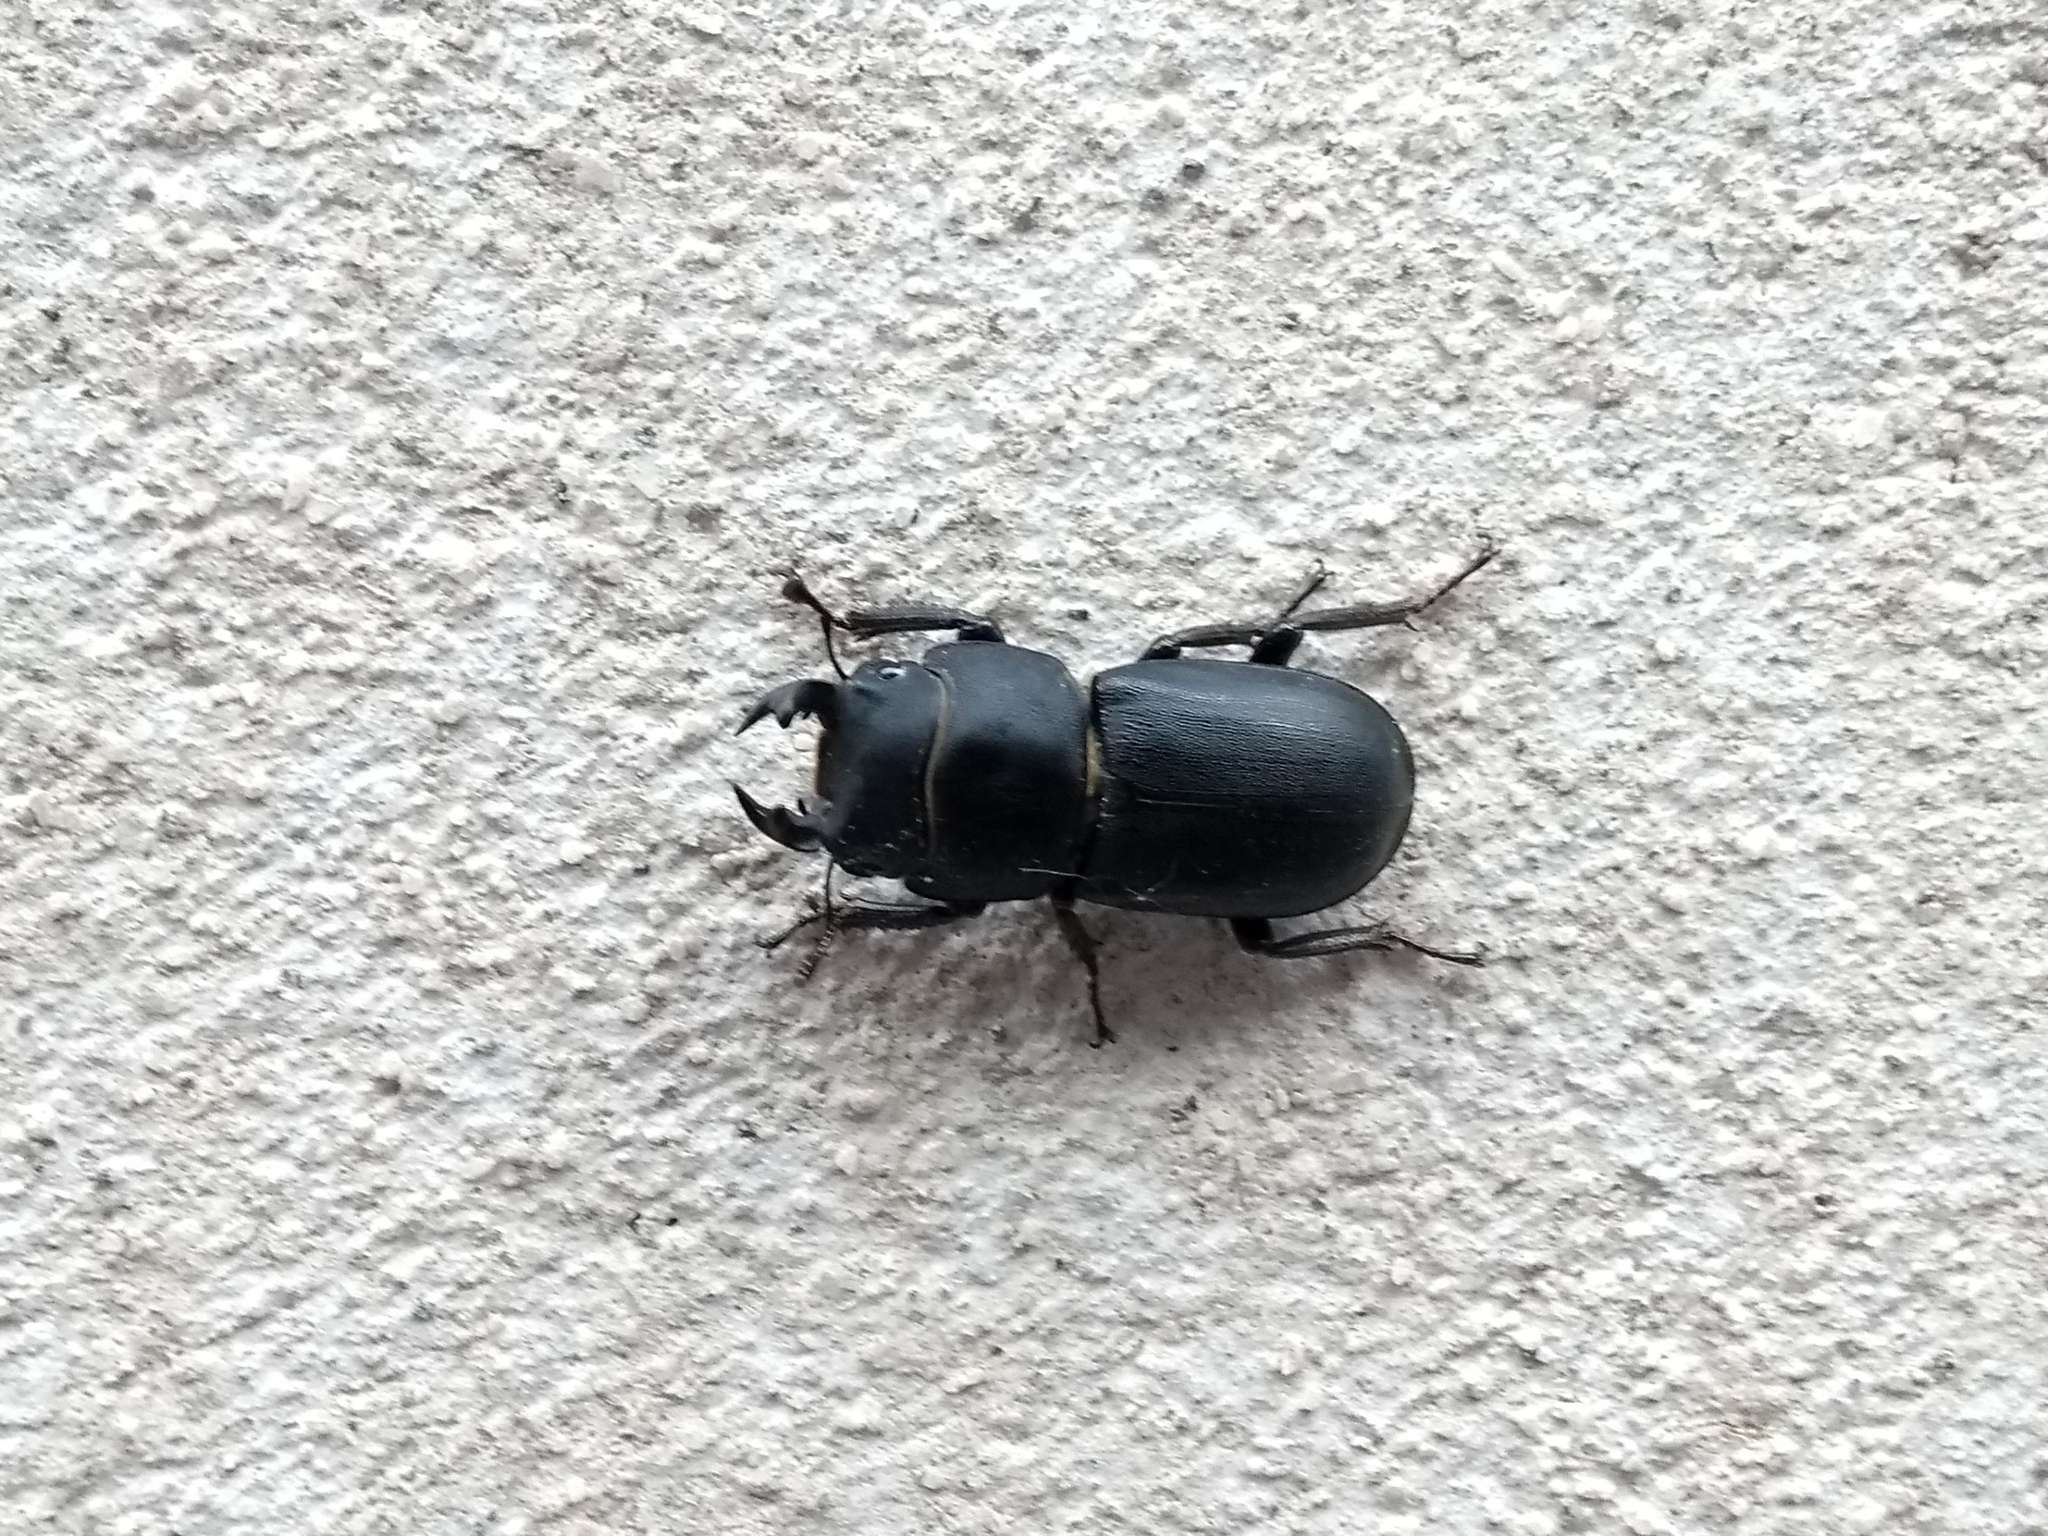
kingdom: Animalia
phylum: Arthropoda
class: Insecta
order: Coleoptera
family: Lucanidae
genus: Dorcus
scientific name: Dorcus parallelipipedus
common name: Lesser stag beetle
